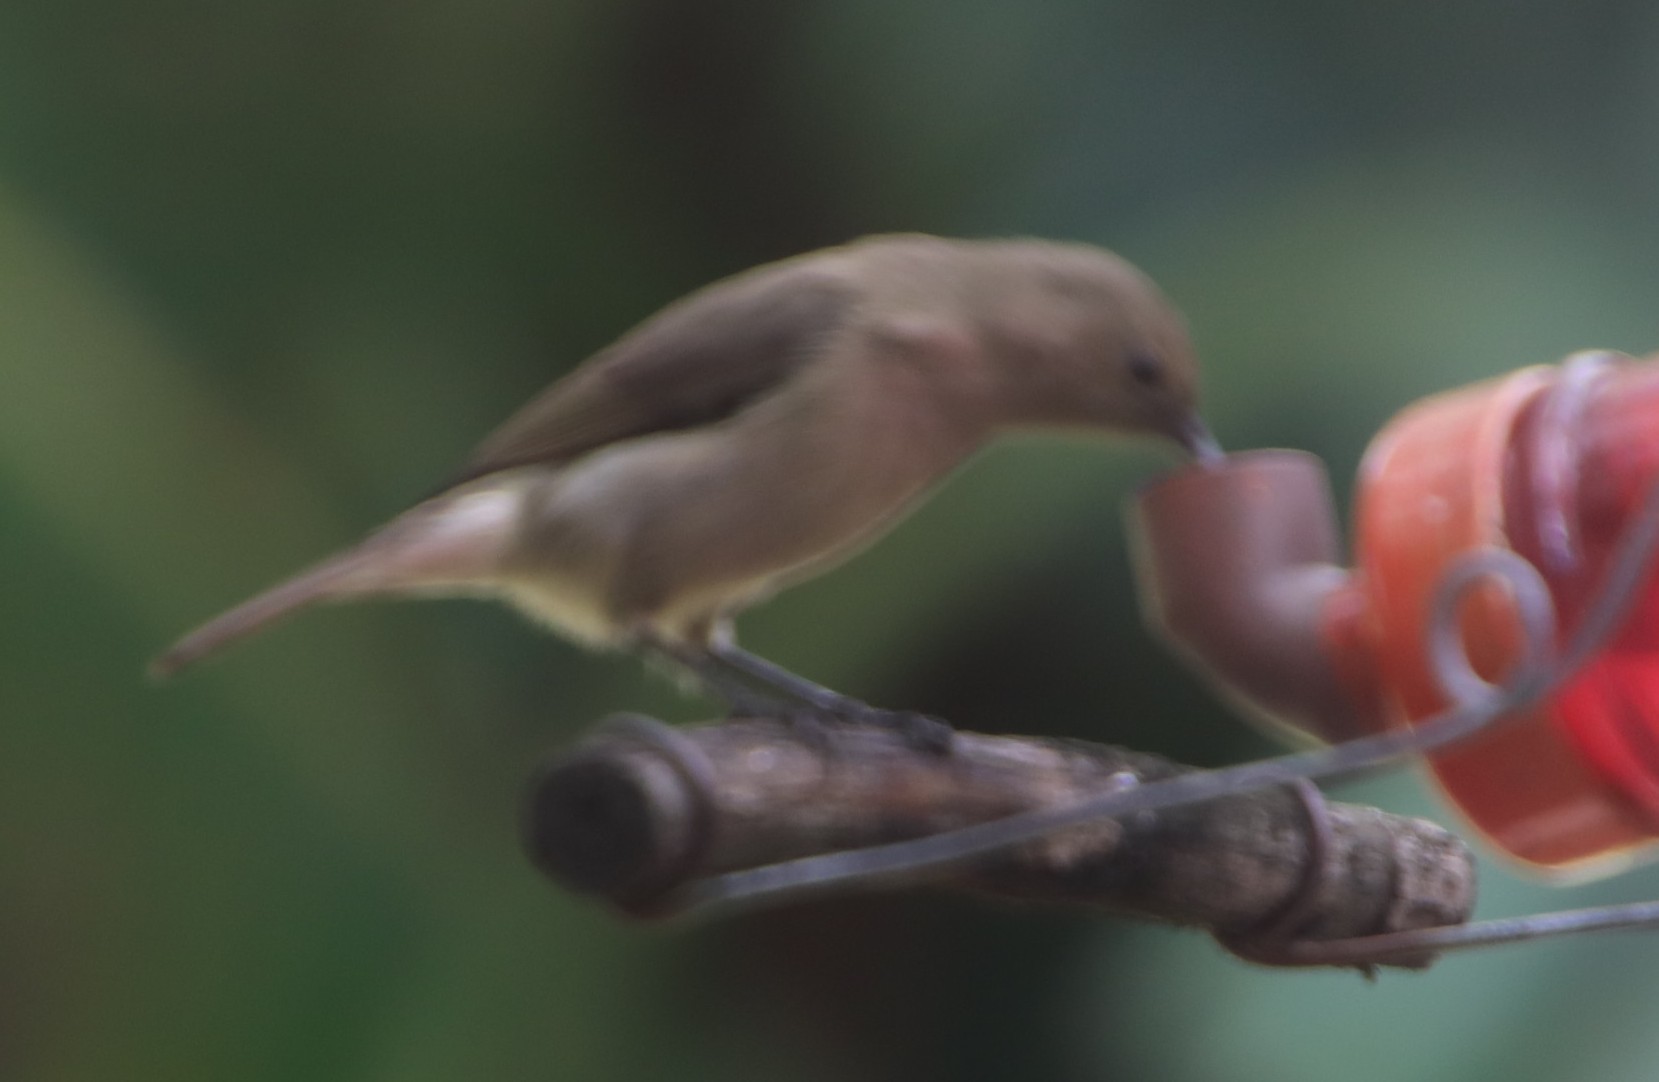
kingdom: Animalia
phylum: Chordata
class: Aves
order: Passeriformes
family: Nectariniidae
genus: Cinnyris
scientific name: Cinnyris chalybeus
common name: Southern double-collared sunbird
